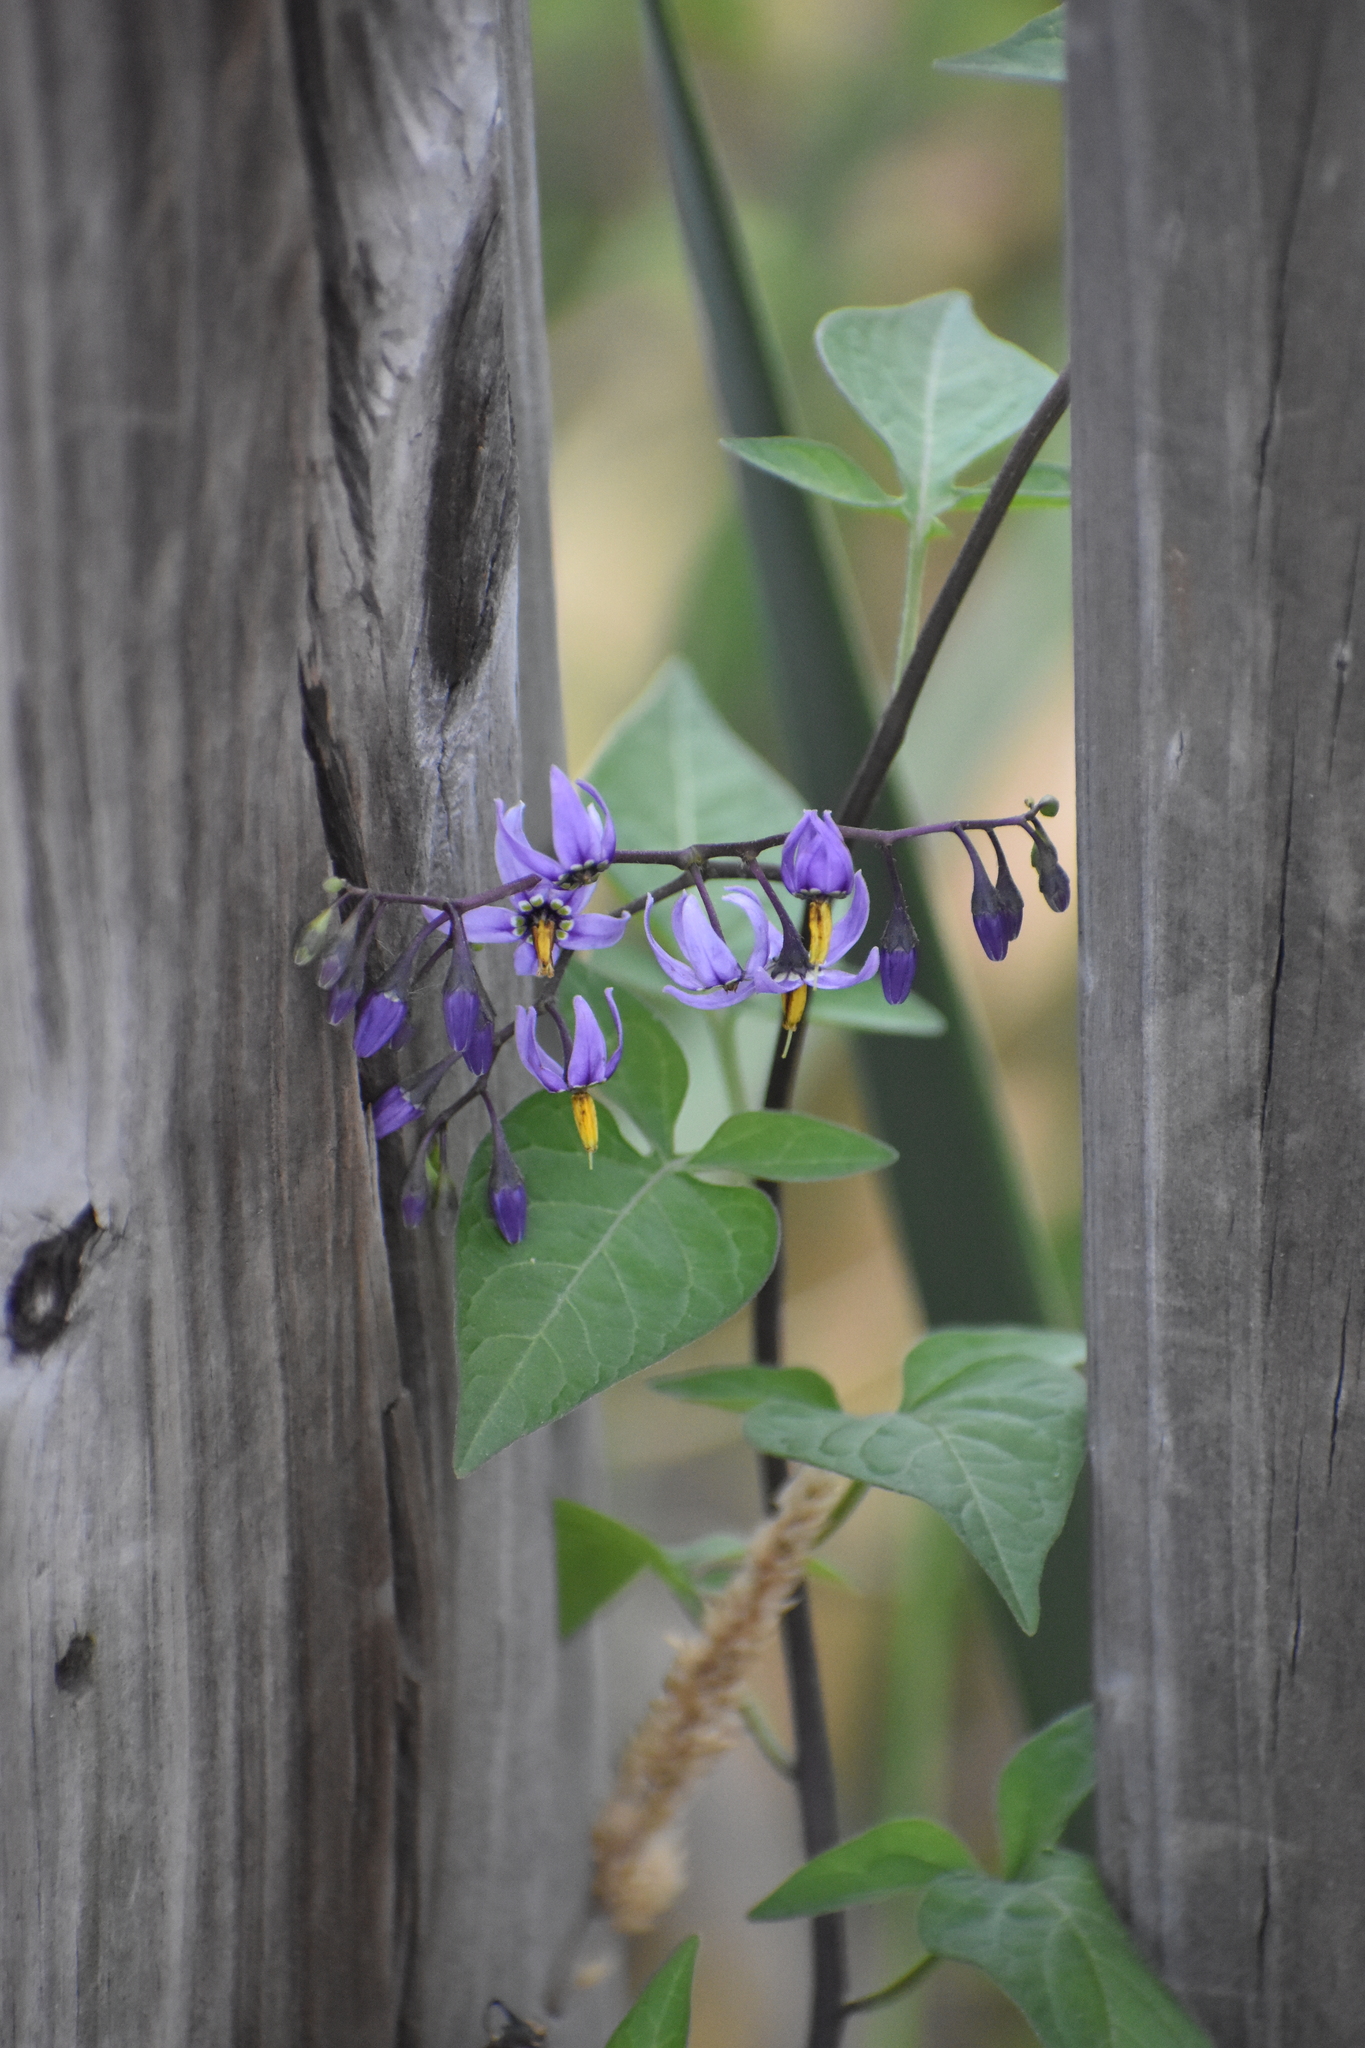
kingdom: Plantae
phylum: Tracheophyta
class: Magnoliopsida
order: Solanales
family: Solanaceae
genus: Solanum
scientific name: Solanum dulcamara
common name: Climbing nightshade
